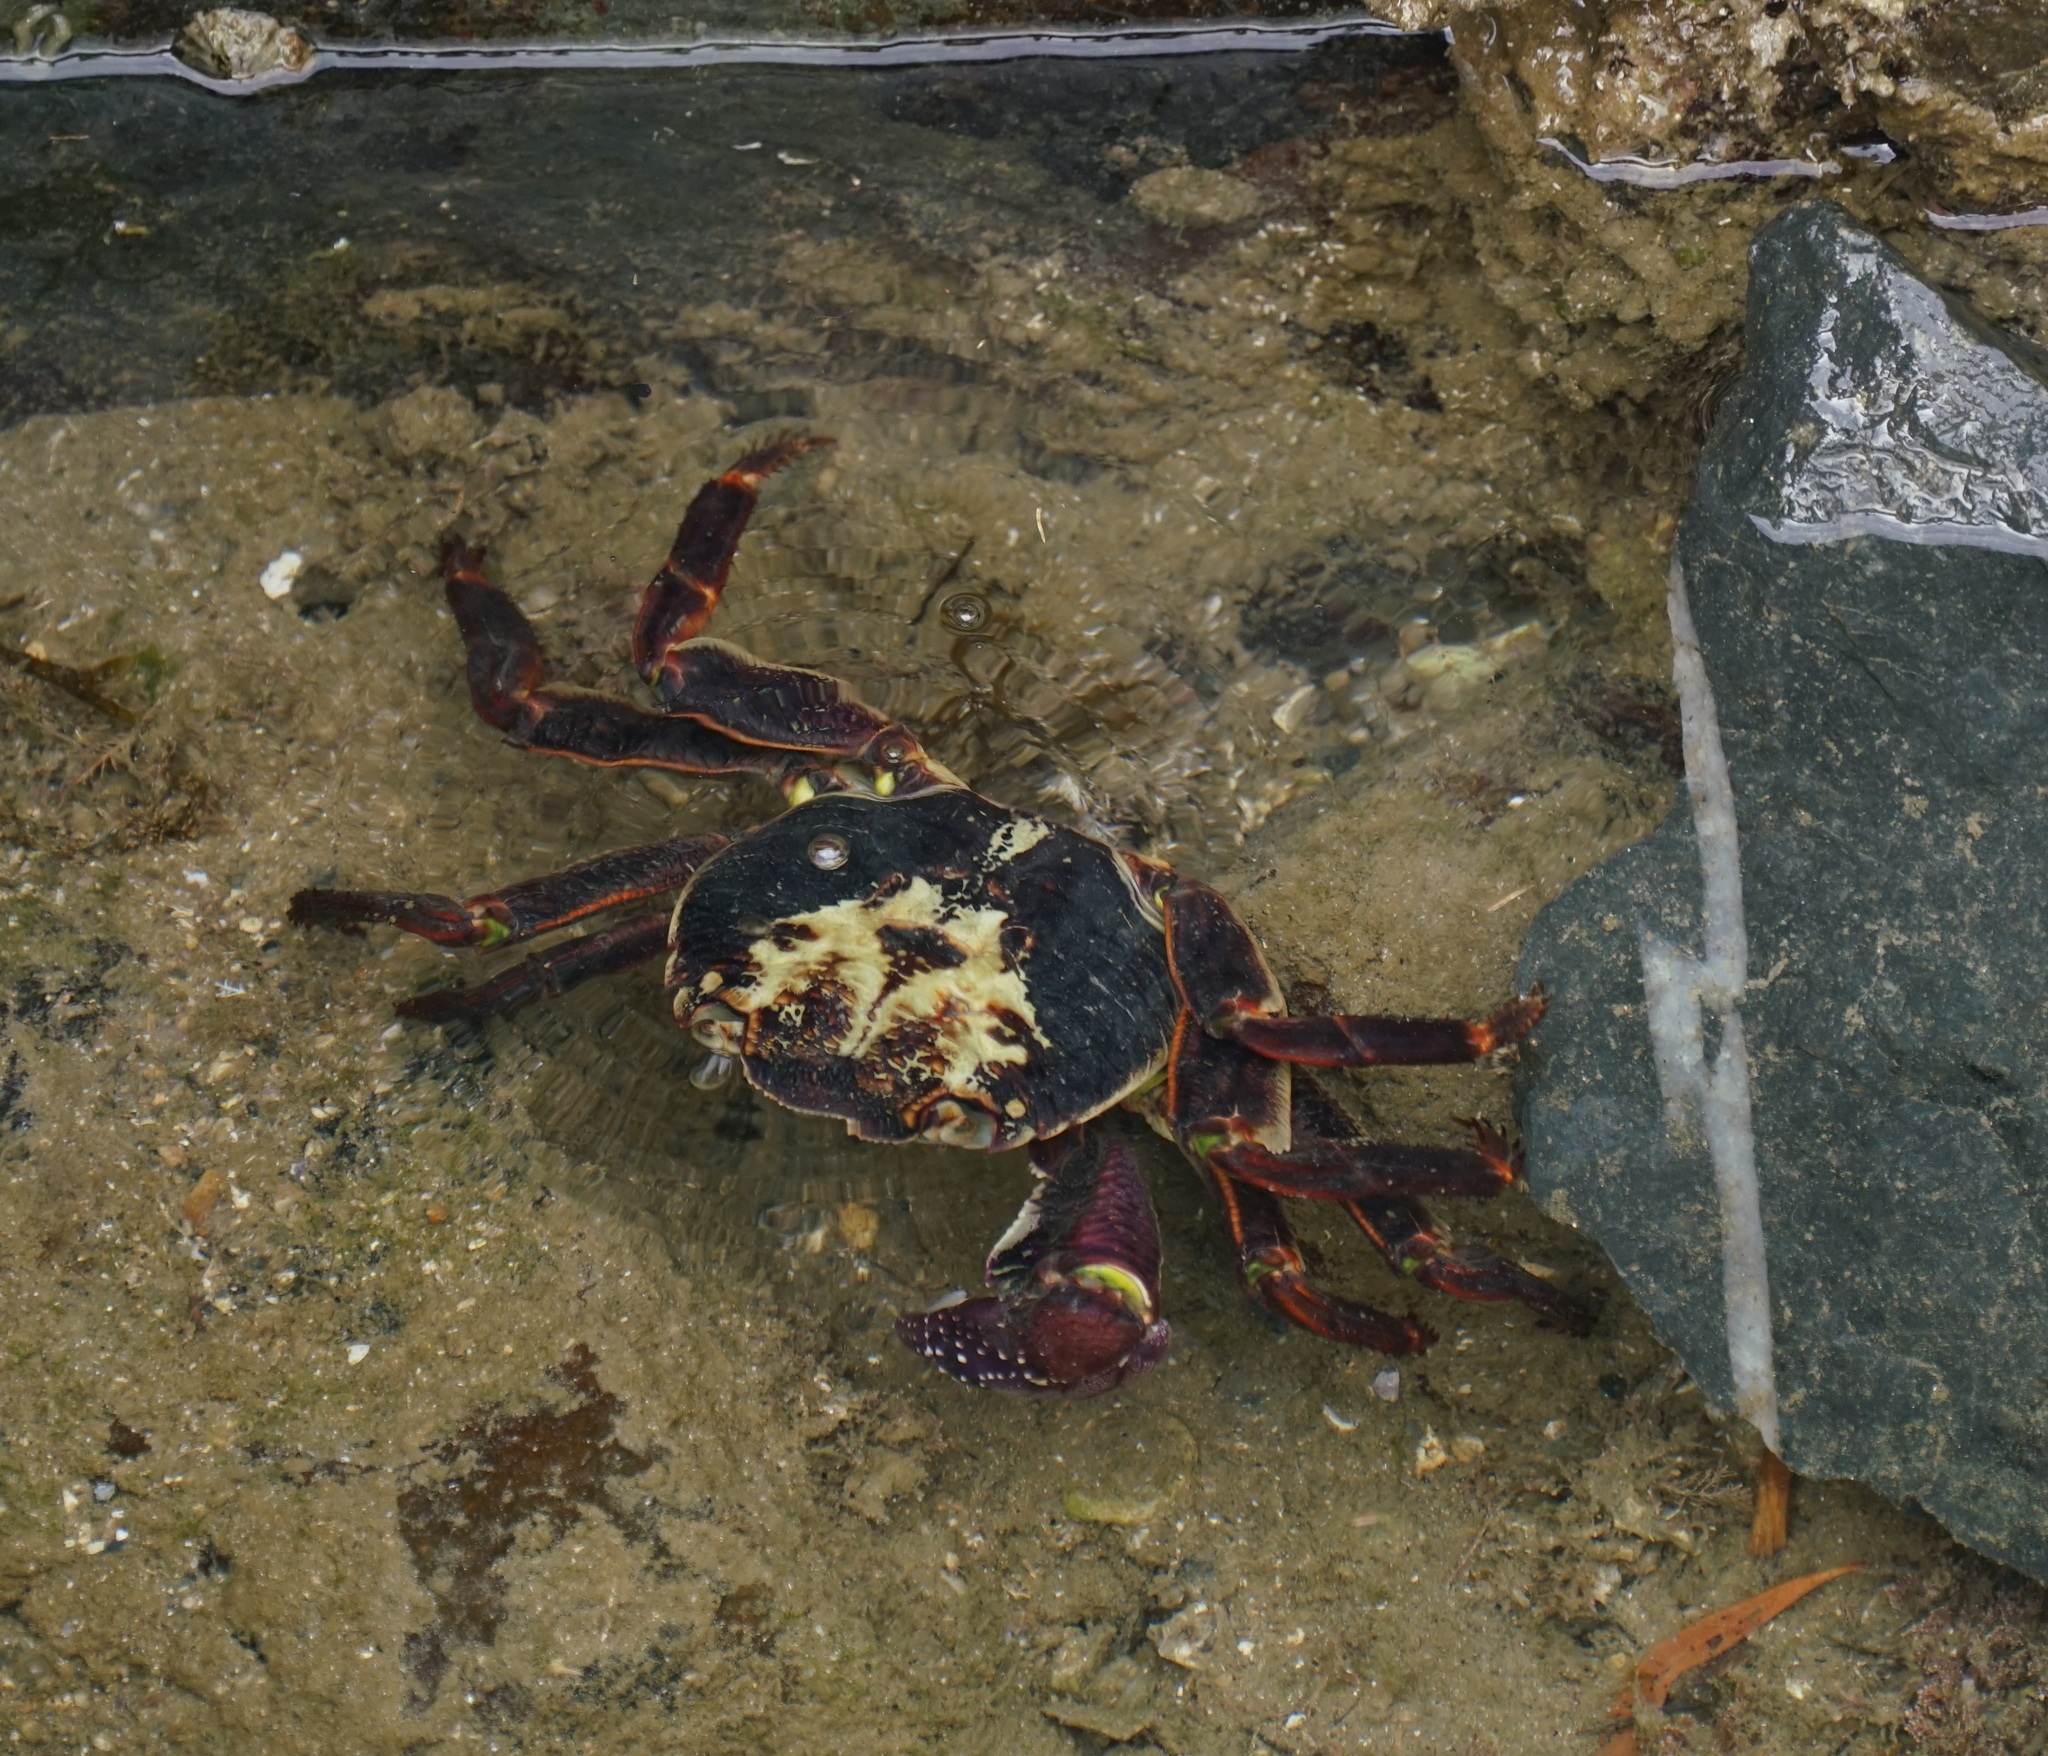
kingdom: Animalia
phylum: Arthropoda
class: Malacostraca
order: Decapoda
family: Grapsidae
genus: Leptograpsus
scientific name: Leptograpsus variegatus
